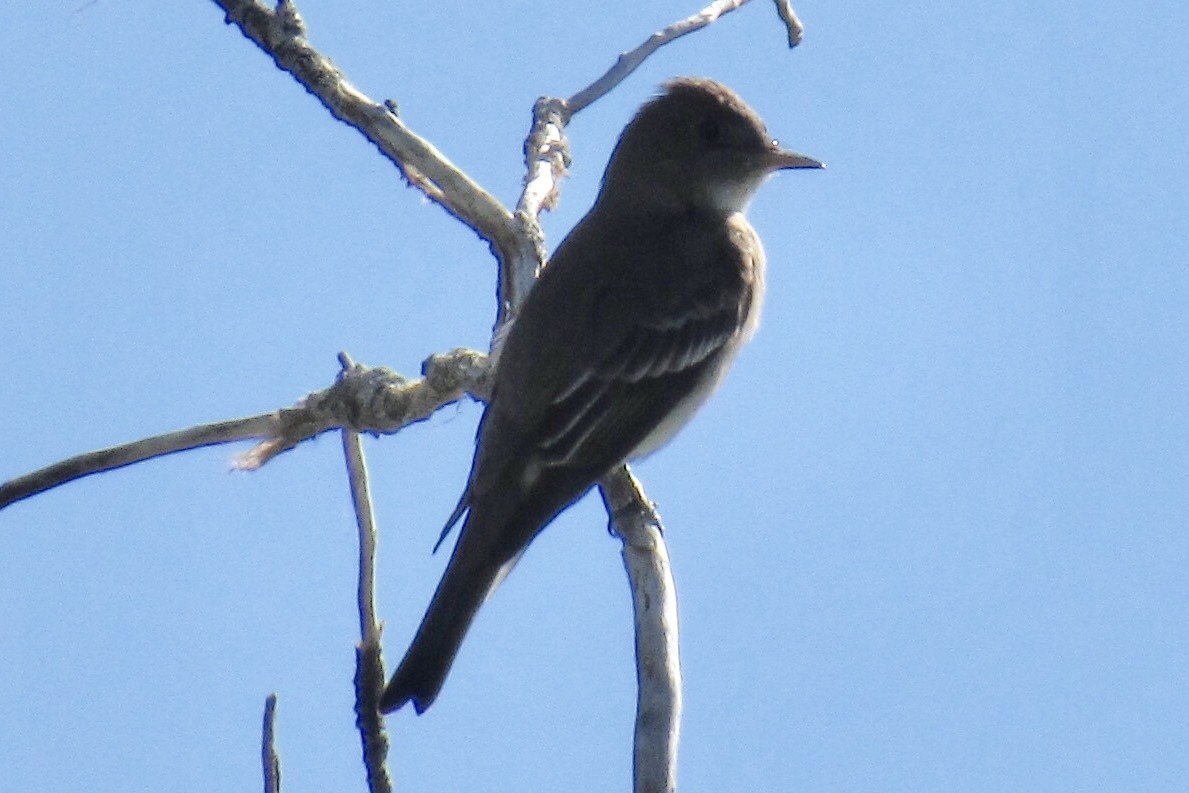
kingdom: Animalia
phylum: Chordata
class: Aves
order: Passeriformes
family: Tyrannidae
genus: Contopus
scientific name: Contopus sordidulus
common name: Western wood-pewee
